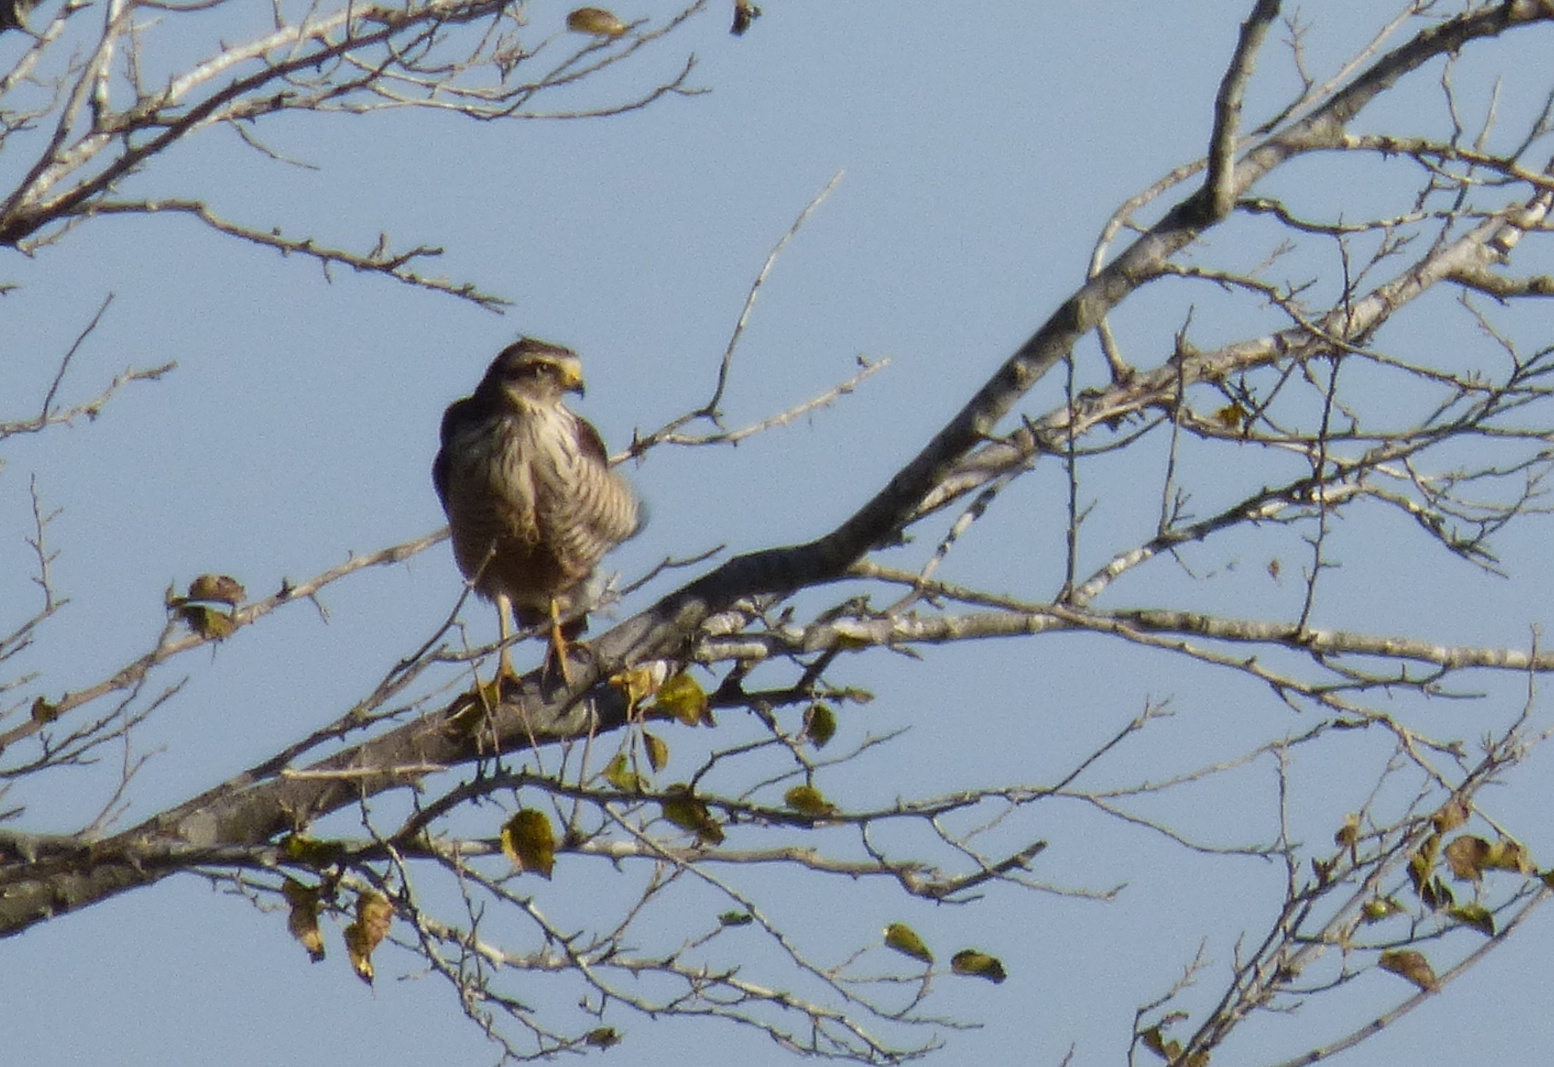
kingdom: Animalia
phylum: Chordata
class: Aves
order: Accipitriformes
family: Accipitridae
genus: Rupornis
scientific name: Rupornis magnirostris
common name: Roadside hawk
